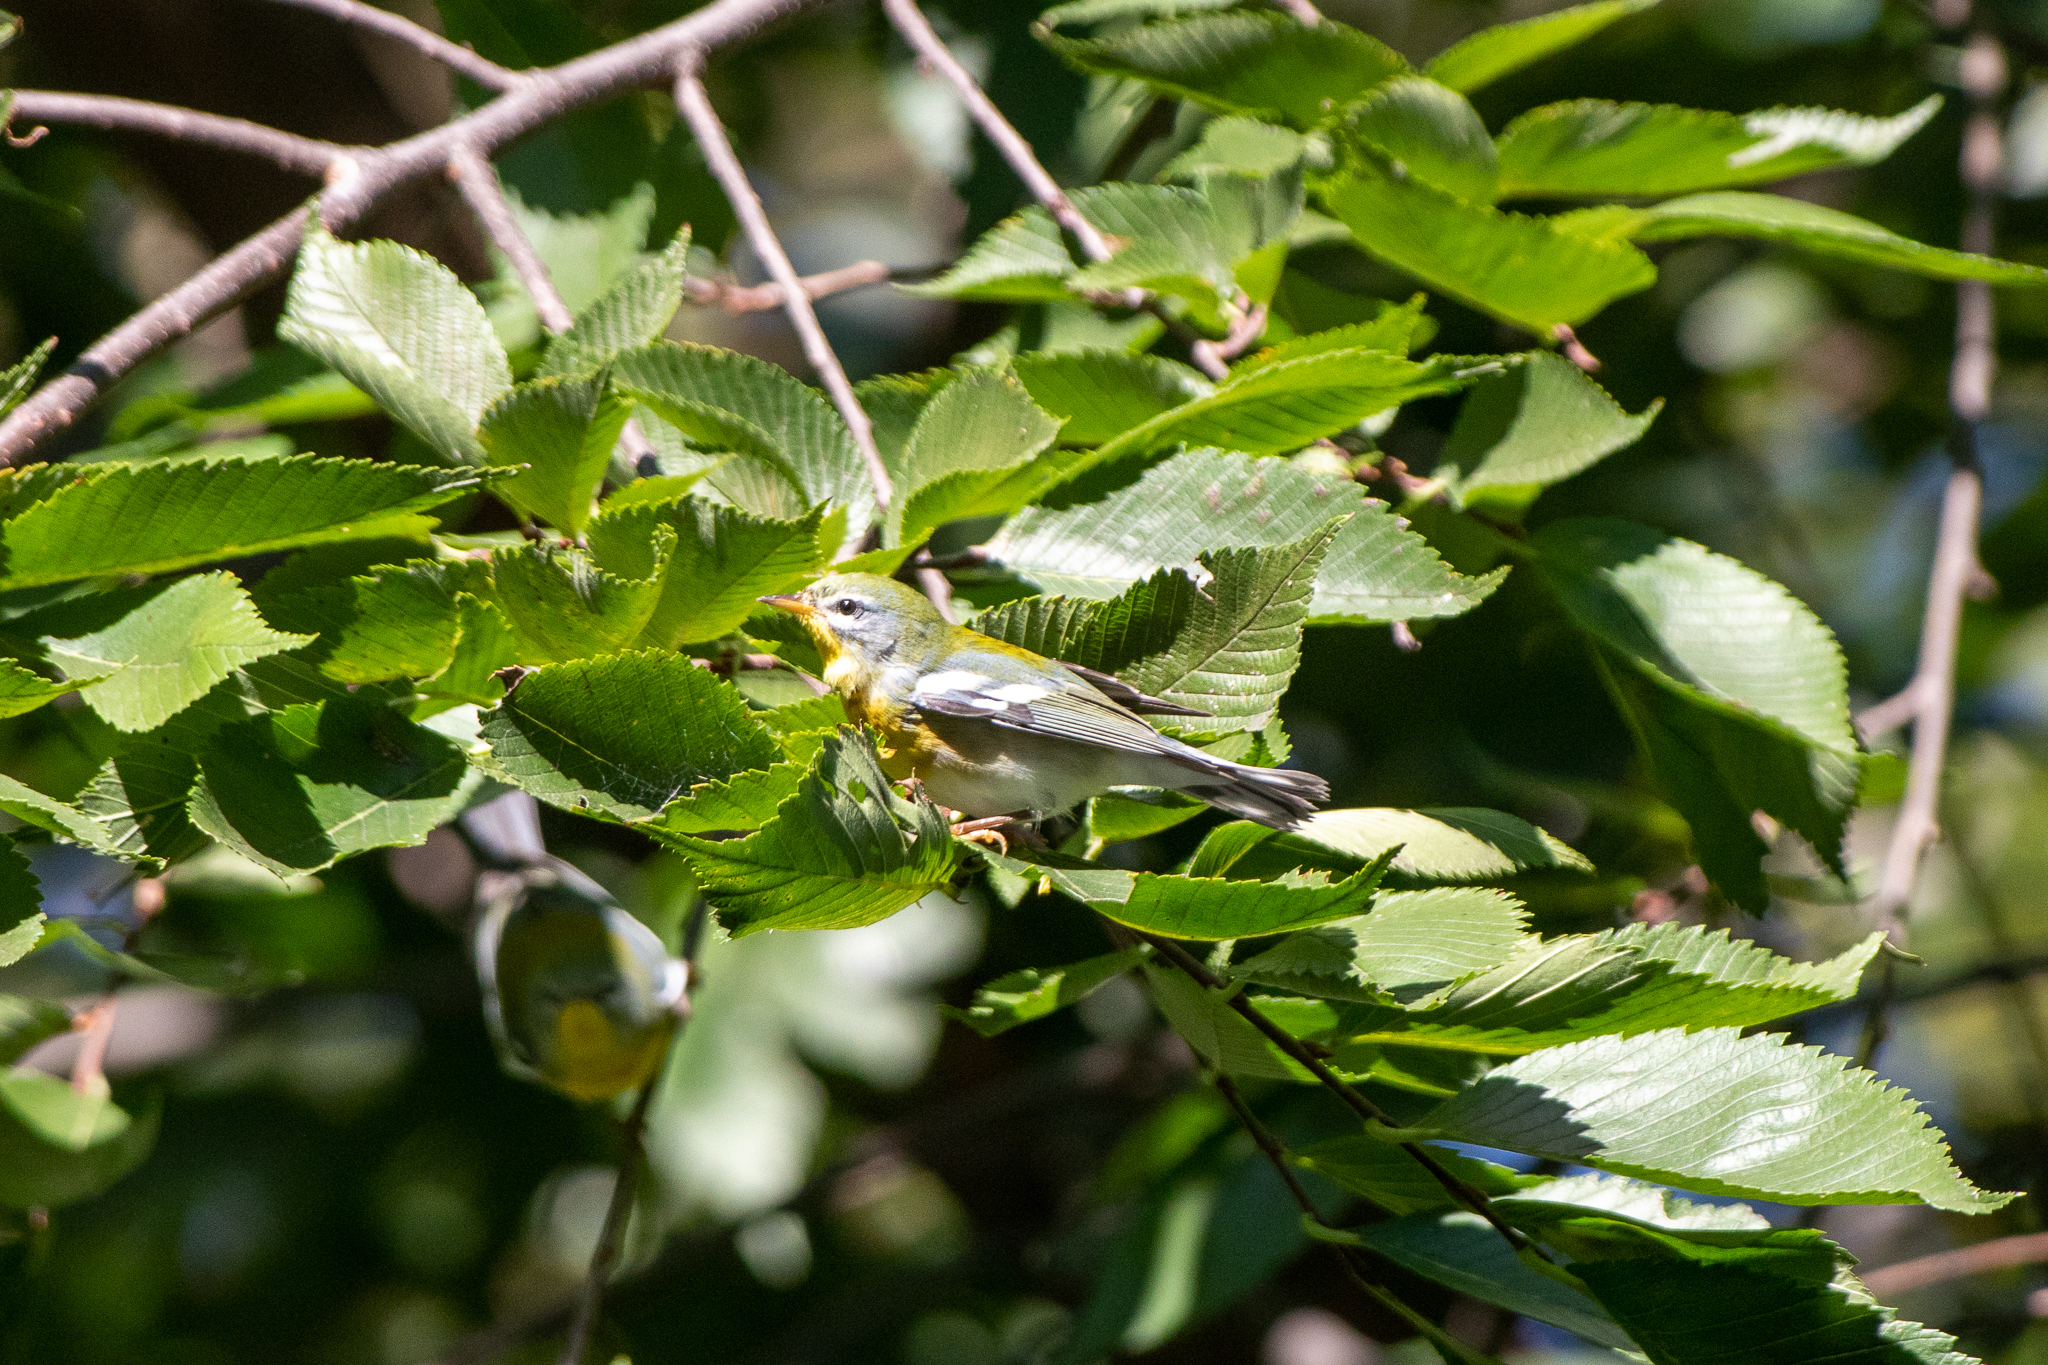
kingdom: Animalia
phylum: Chordata
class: Aves
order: Passeriformes
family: Parulidae
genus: Setophaga
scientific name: Setophaga americana
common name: Northern parula
